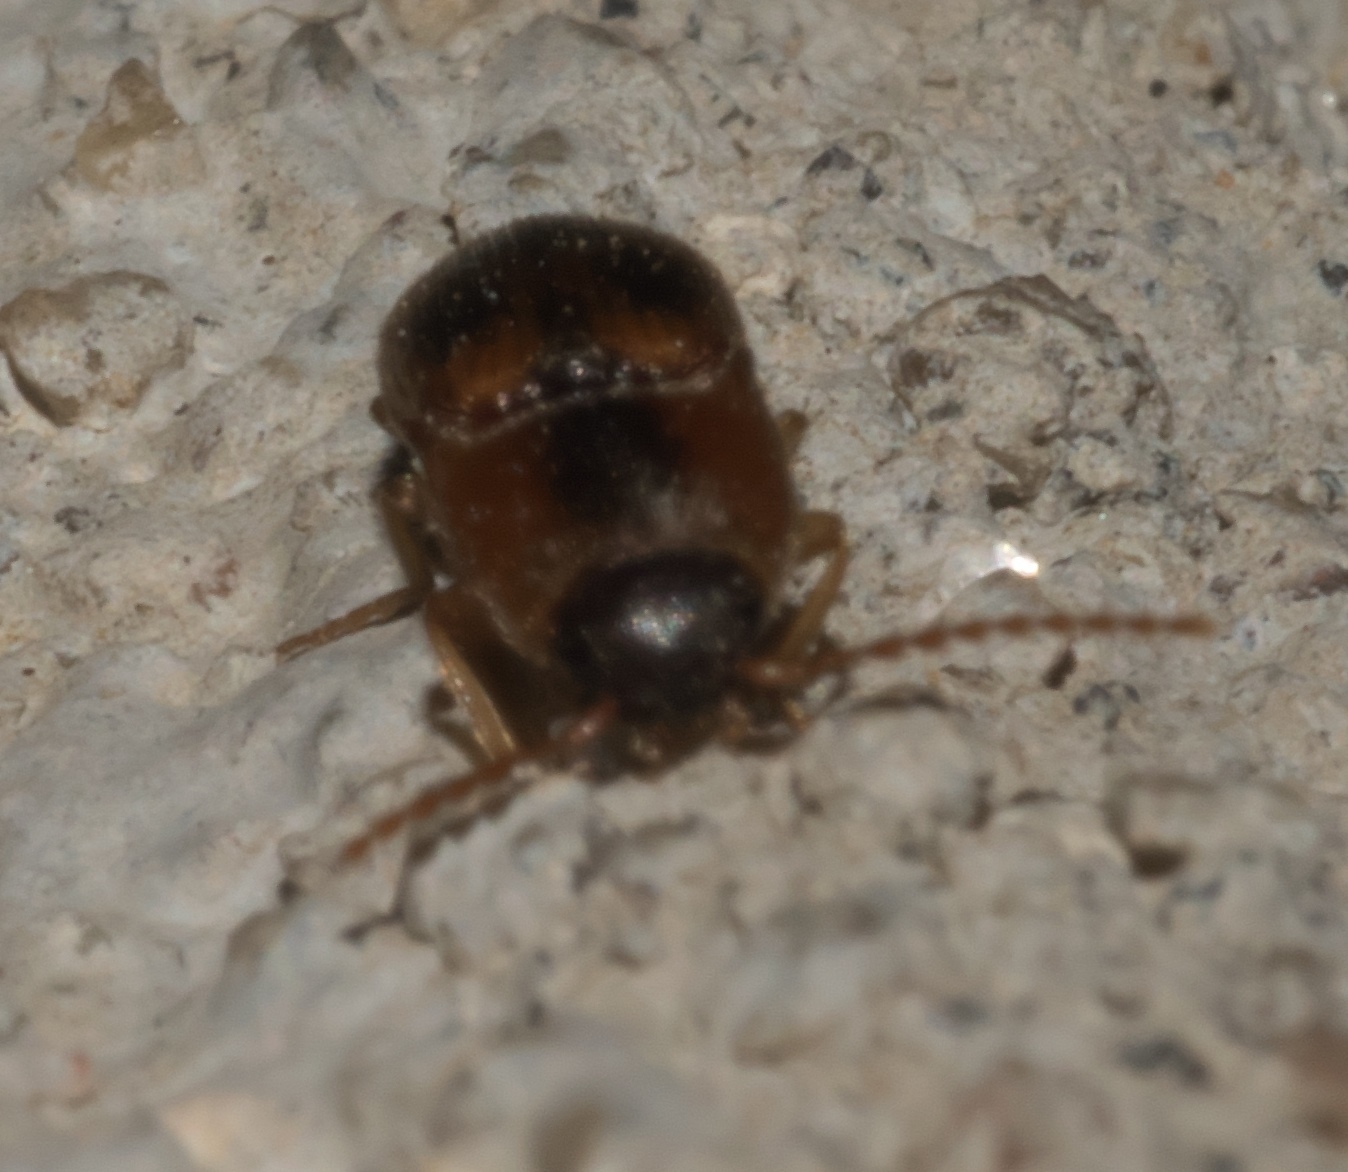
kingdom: Animalia
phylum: Arthropoda
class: Insecta
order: Coleoptera
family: Elateridae
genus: Aeolus
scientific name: Aeolus
